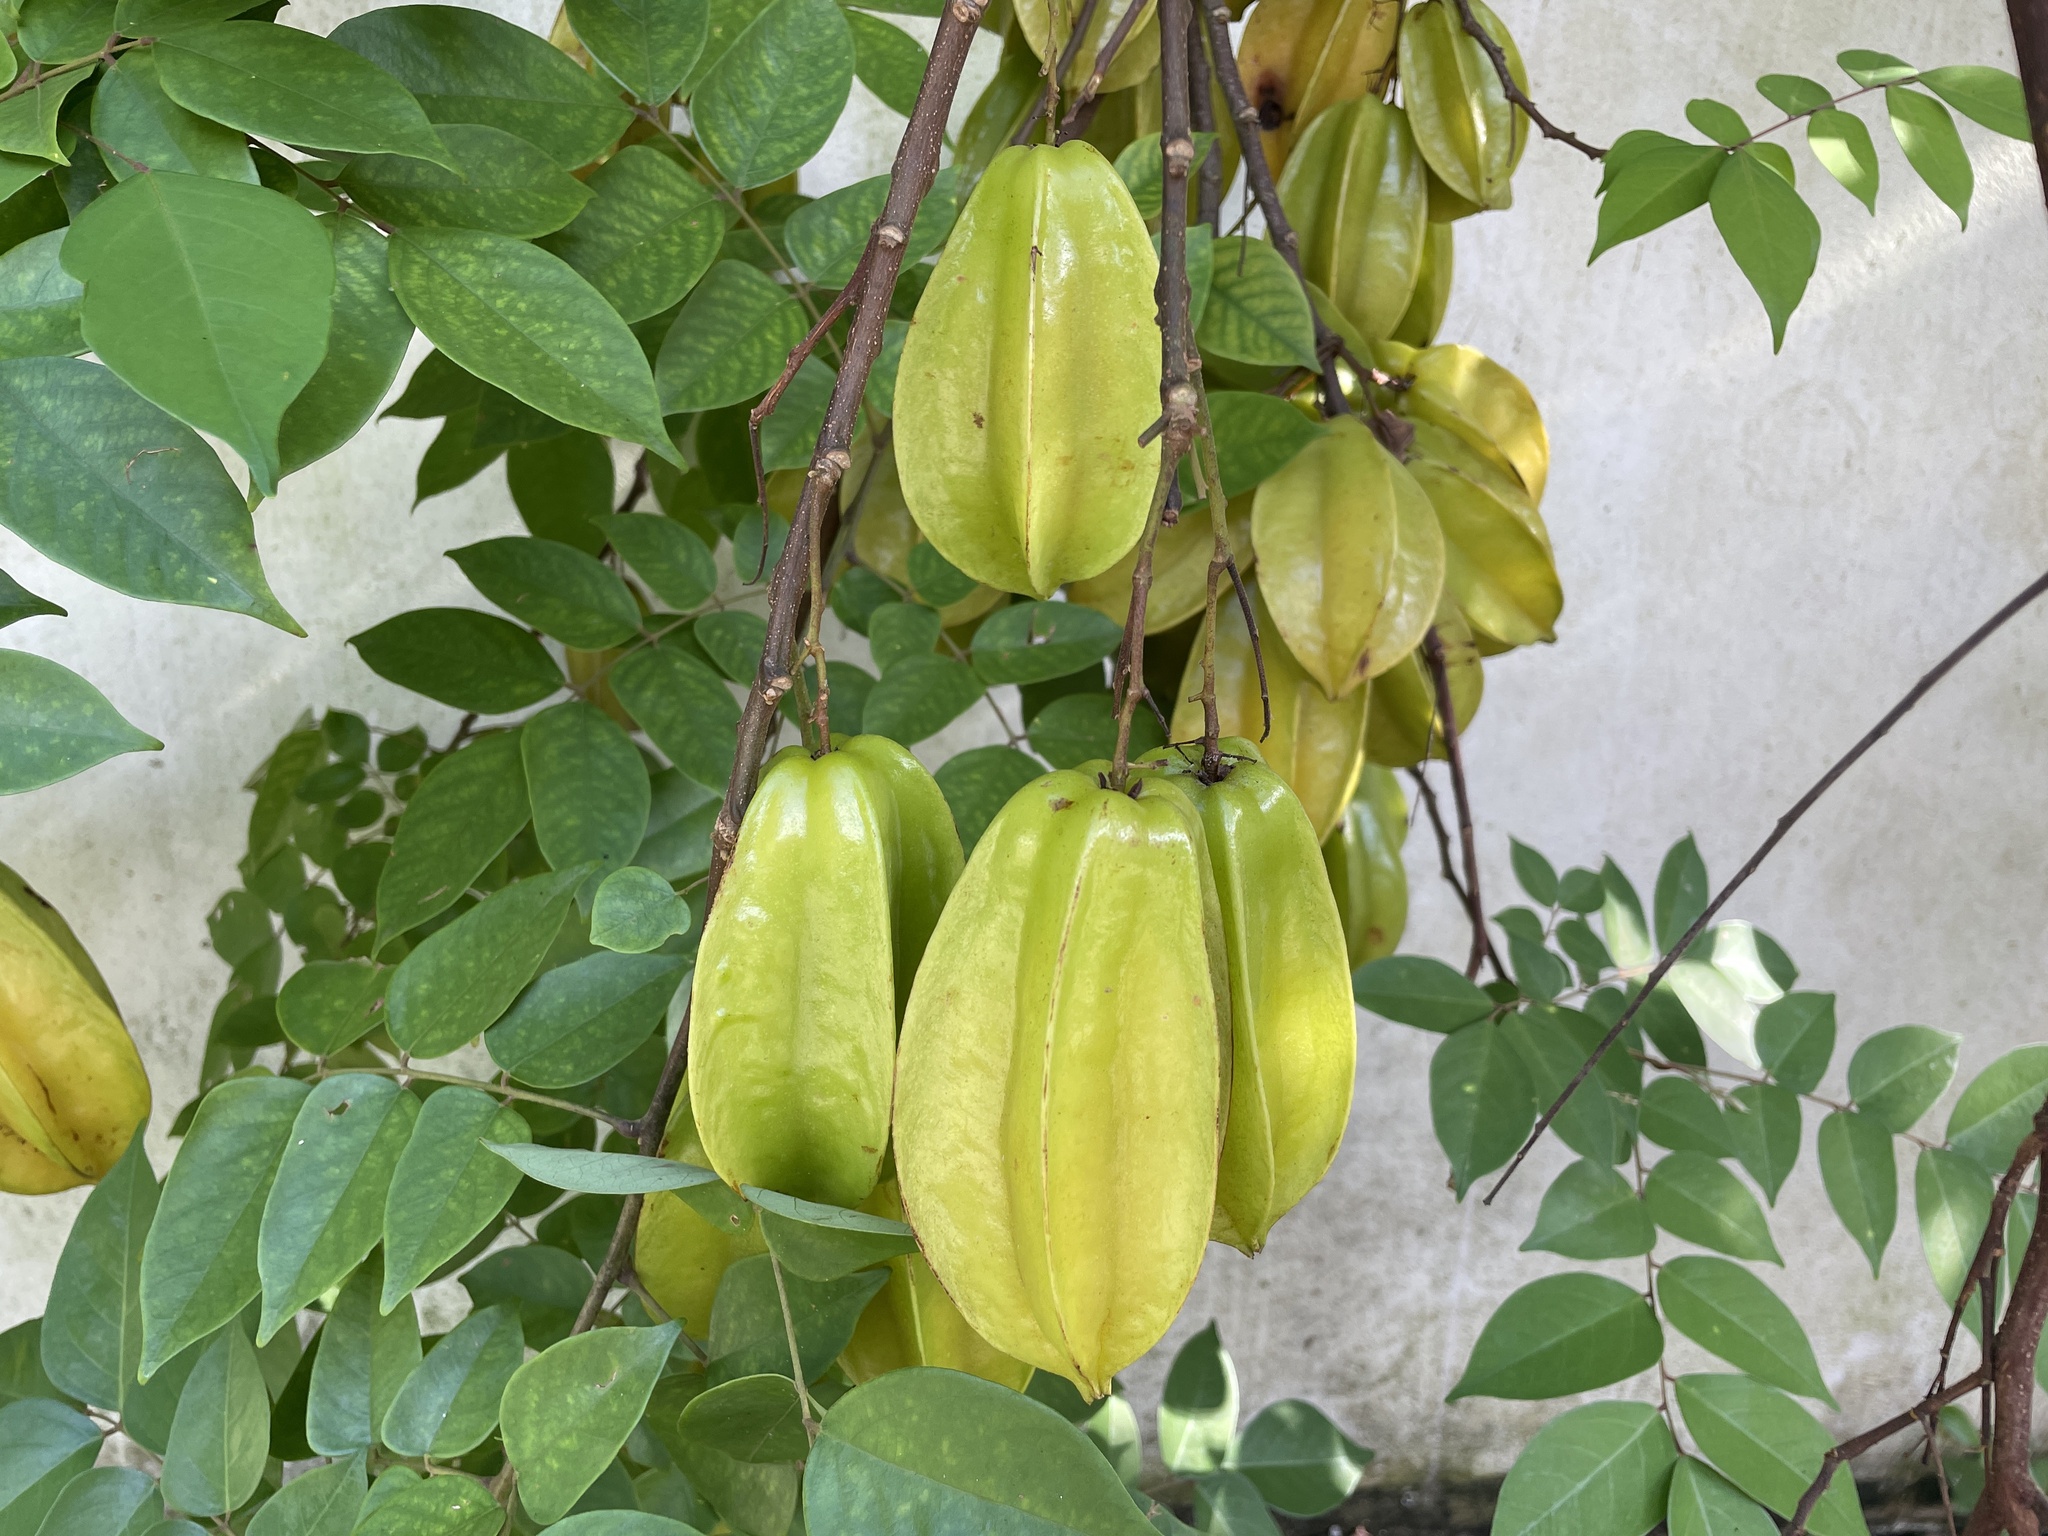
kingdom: Plantae
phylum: Tracheophyta
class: Magnoliopsida
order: Oxalidales
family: Oxalidaceae
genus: Averrhoa
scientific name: Averrhoa carambola
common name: Blimbing
